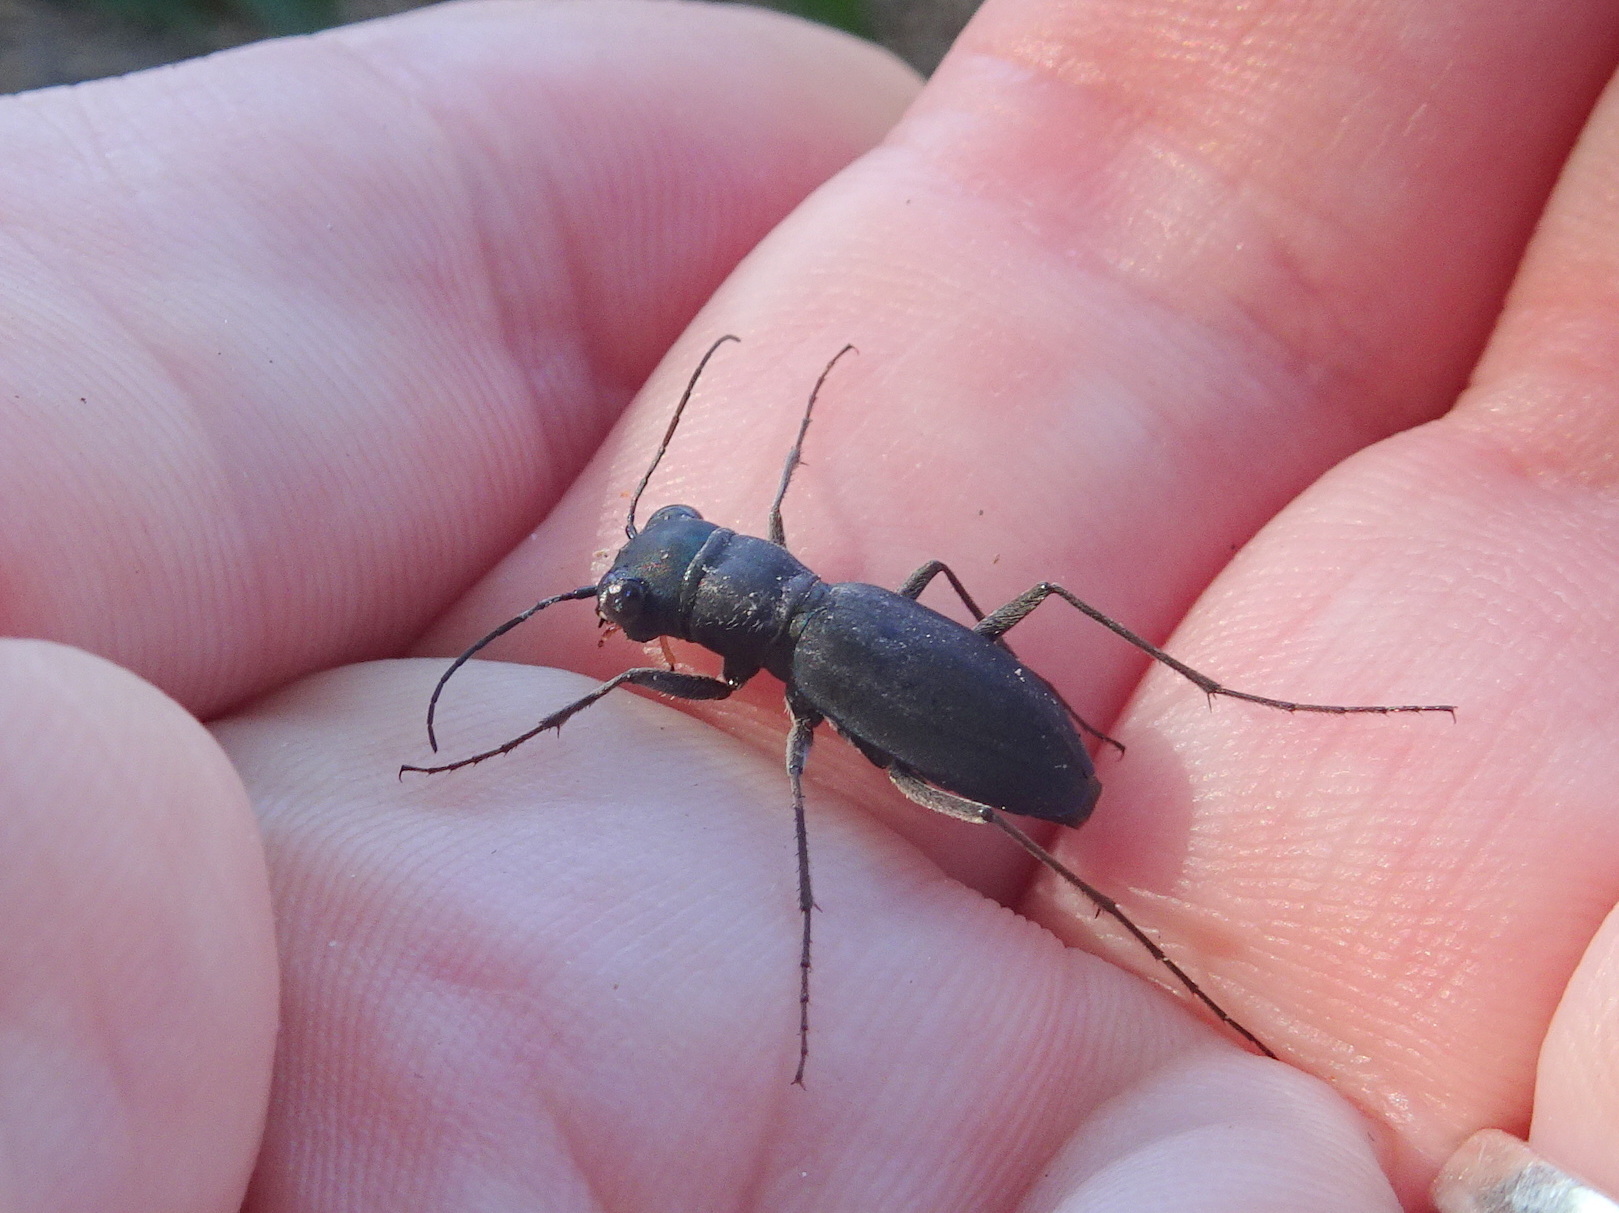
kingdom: Animalia
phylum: Arthropoda
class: Insecta
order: Coleoptera
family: Carabidae
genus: Dromochorus
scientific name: Dromochorus pruininus
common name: Frosted dromo tiger beetle
